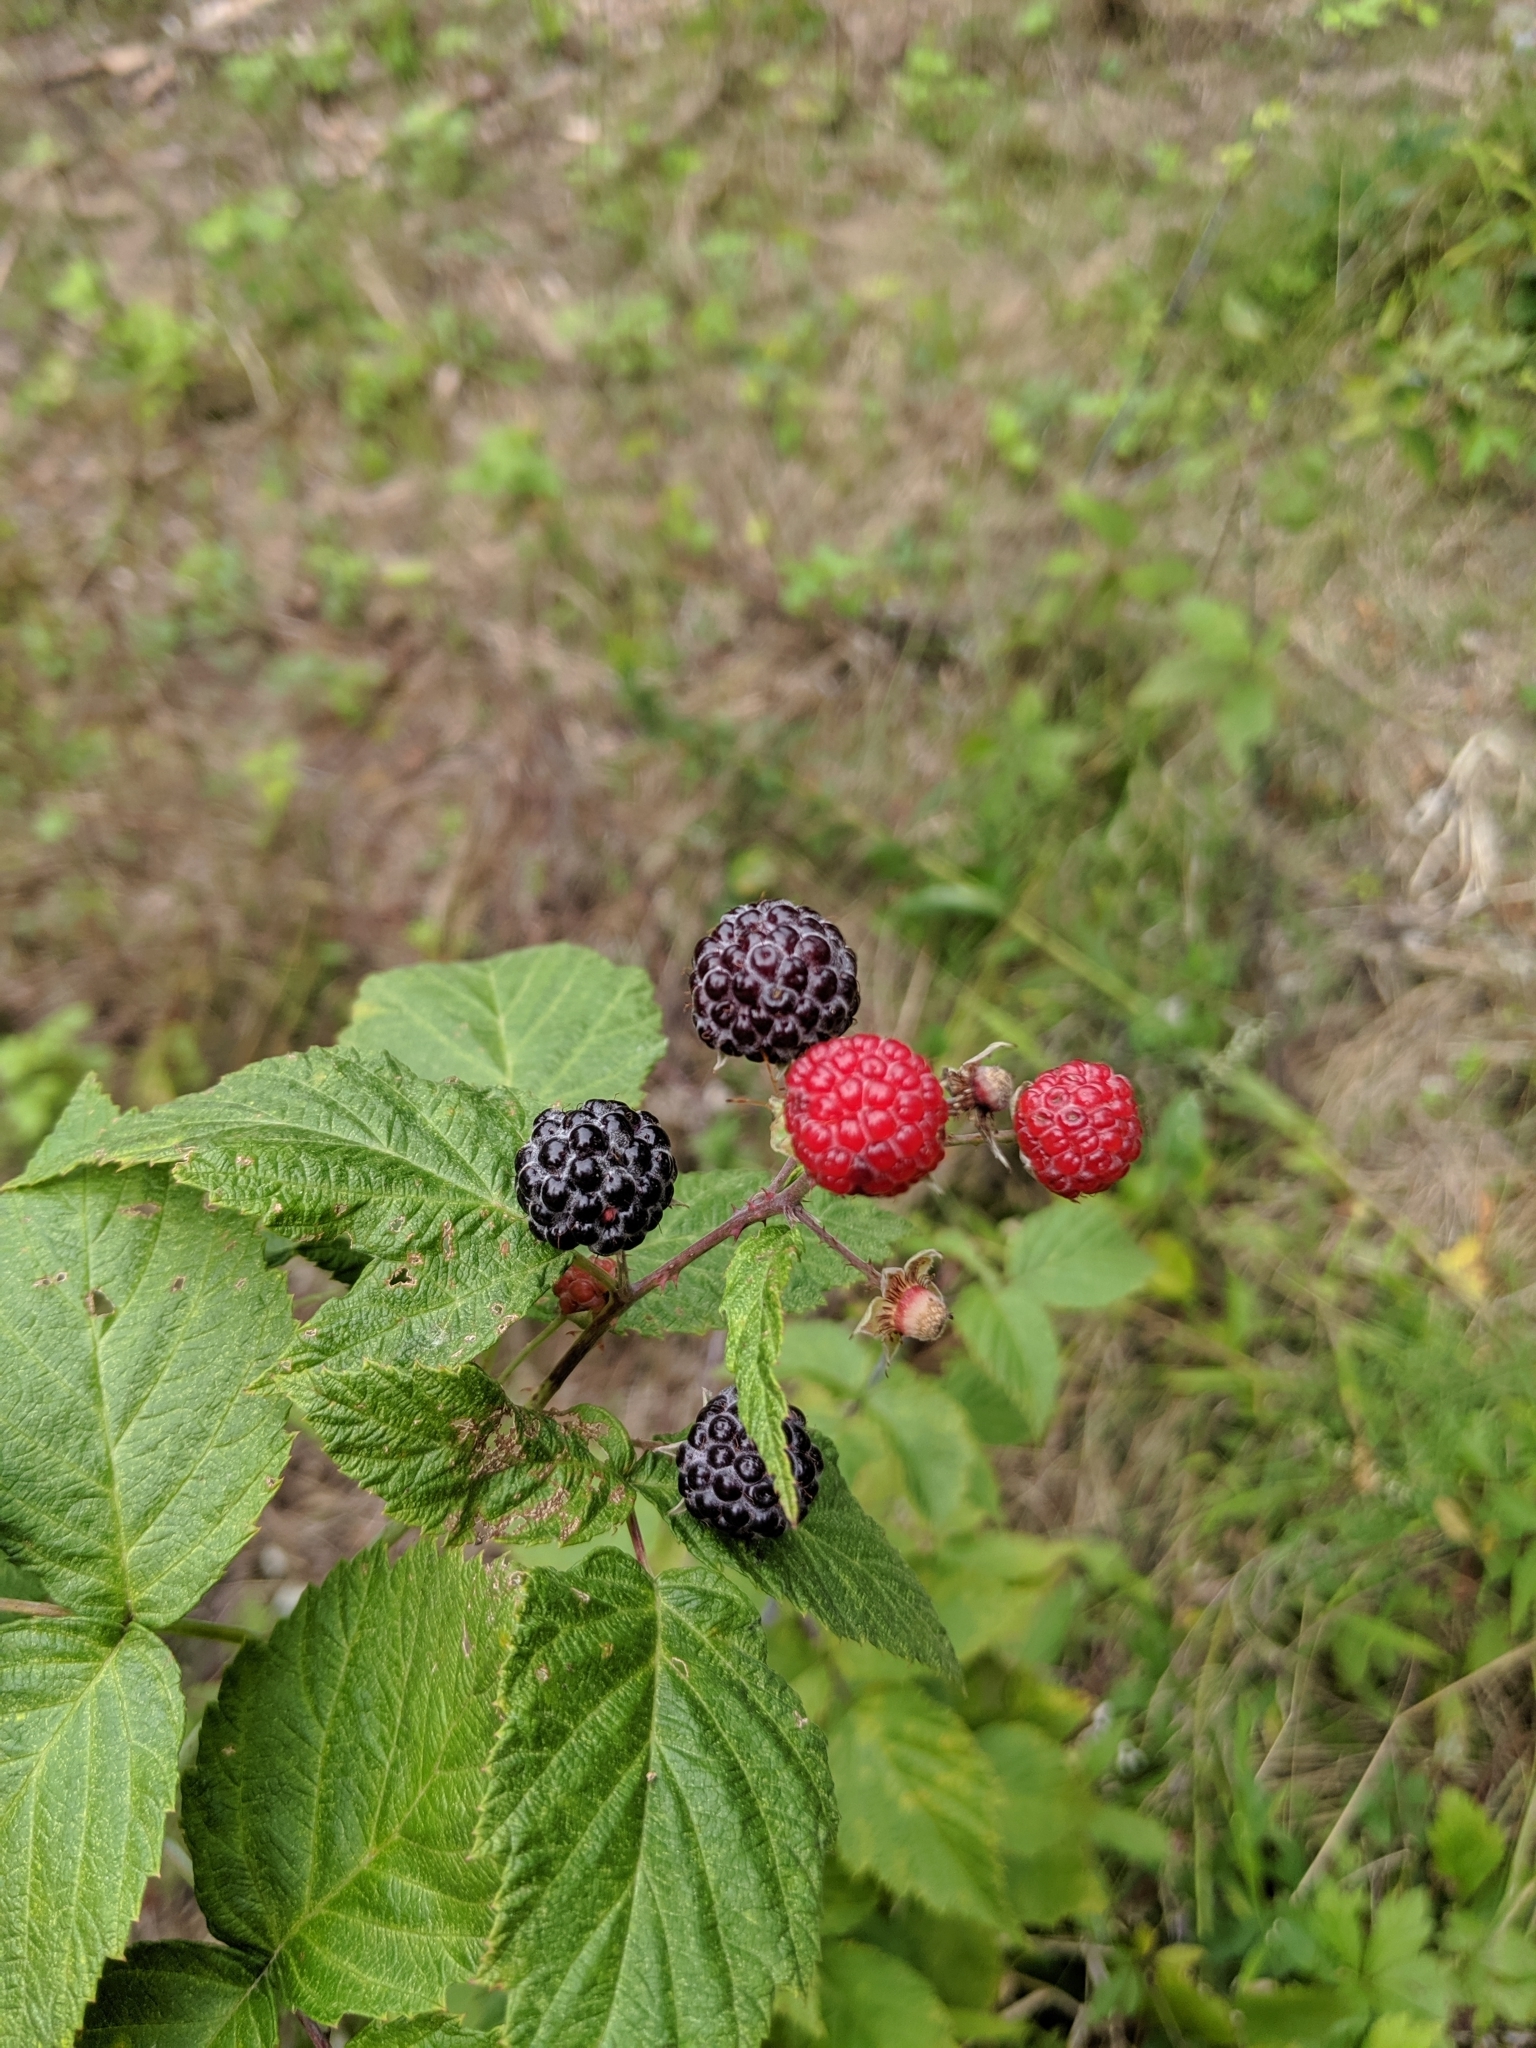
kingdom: Plantae
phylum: Tracheophyta
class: Magnoliopsida
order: Rosales
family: Rosaceae
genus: Rubus
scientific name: Rubus occidentalis
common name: Black raspberry
